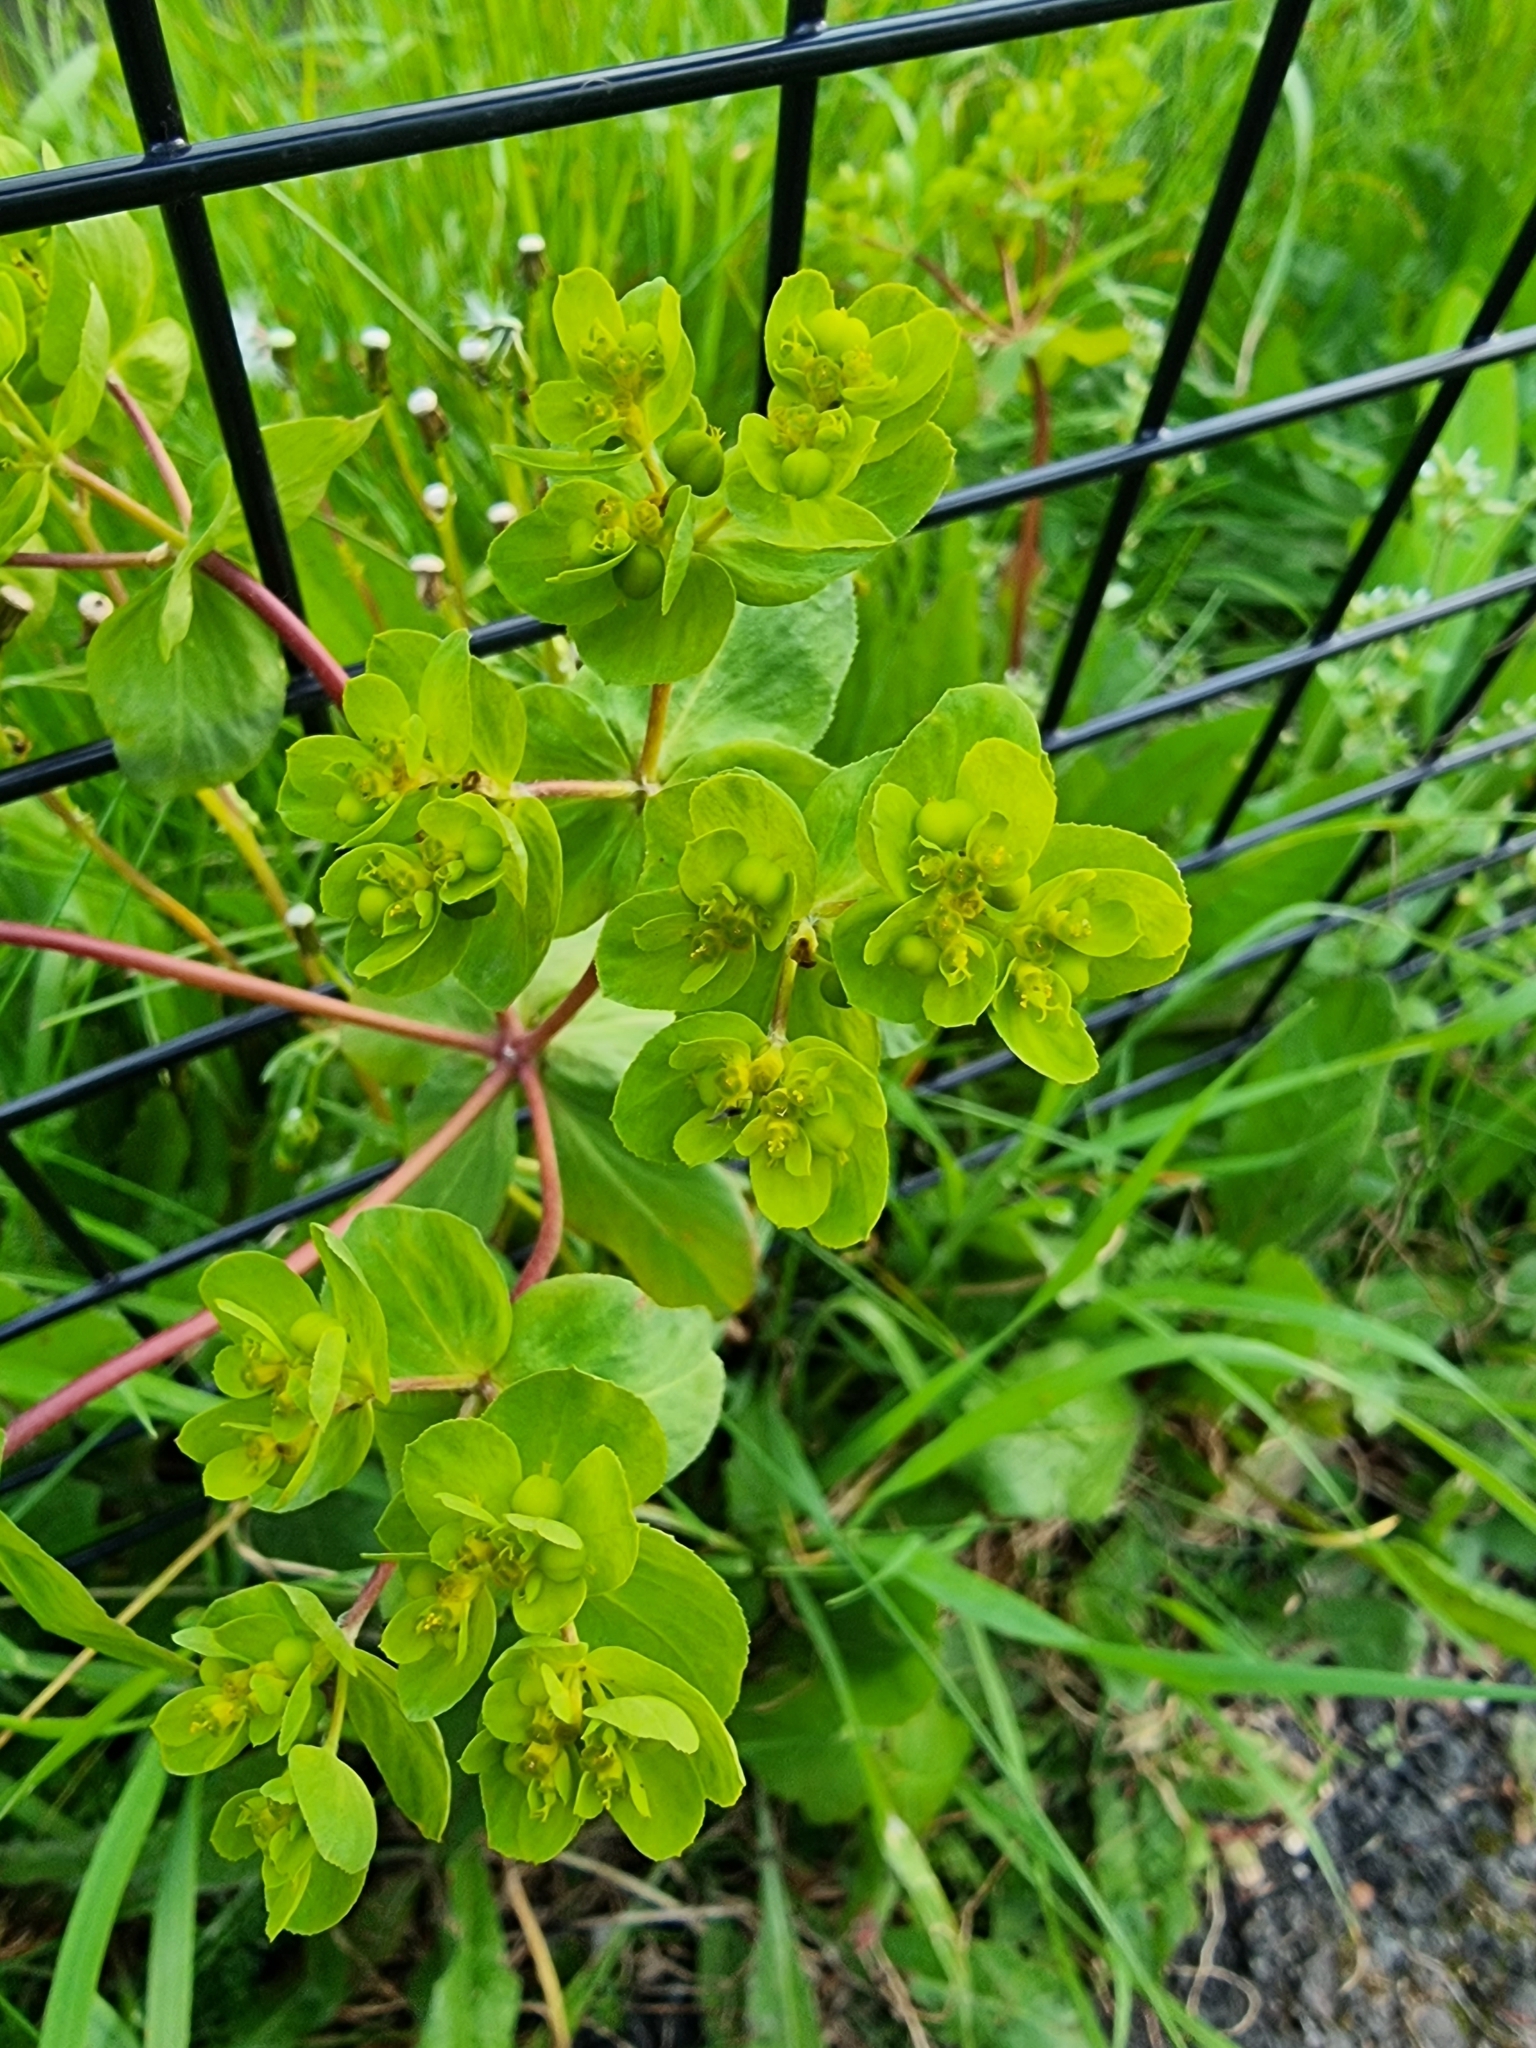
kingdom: Plantae
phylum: Tracheophyta
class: Magnoliopsida
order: Malpighiales
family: Euphorbiaceae
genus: Euphorbia
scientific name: Euphorbia helioscopia
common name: Sun spurge
